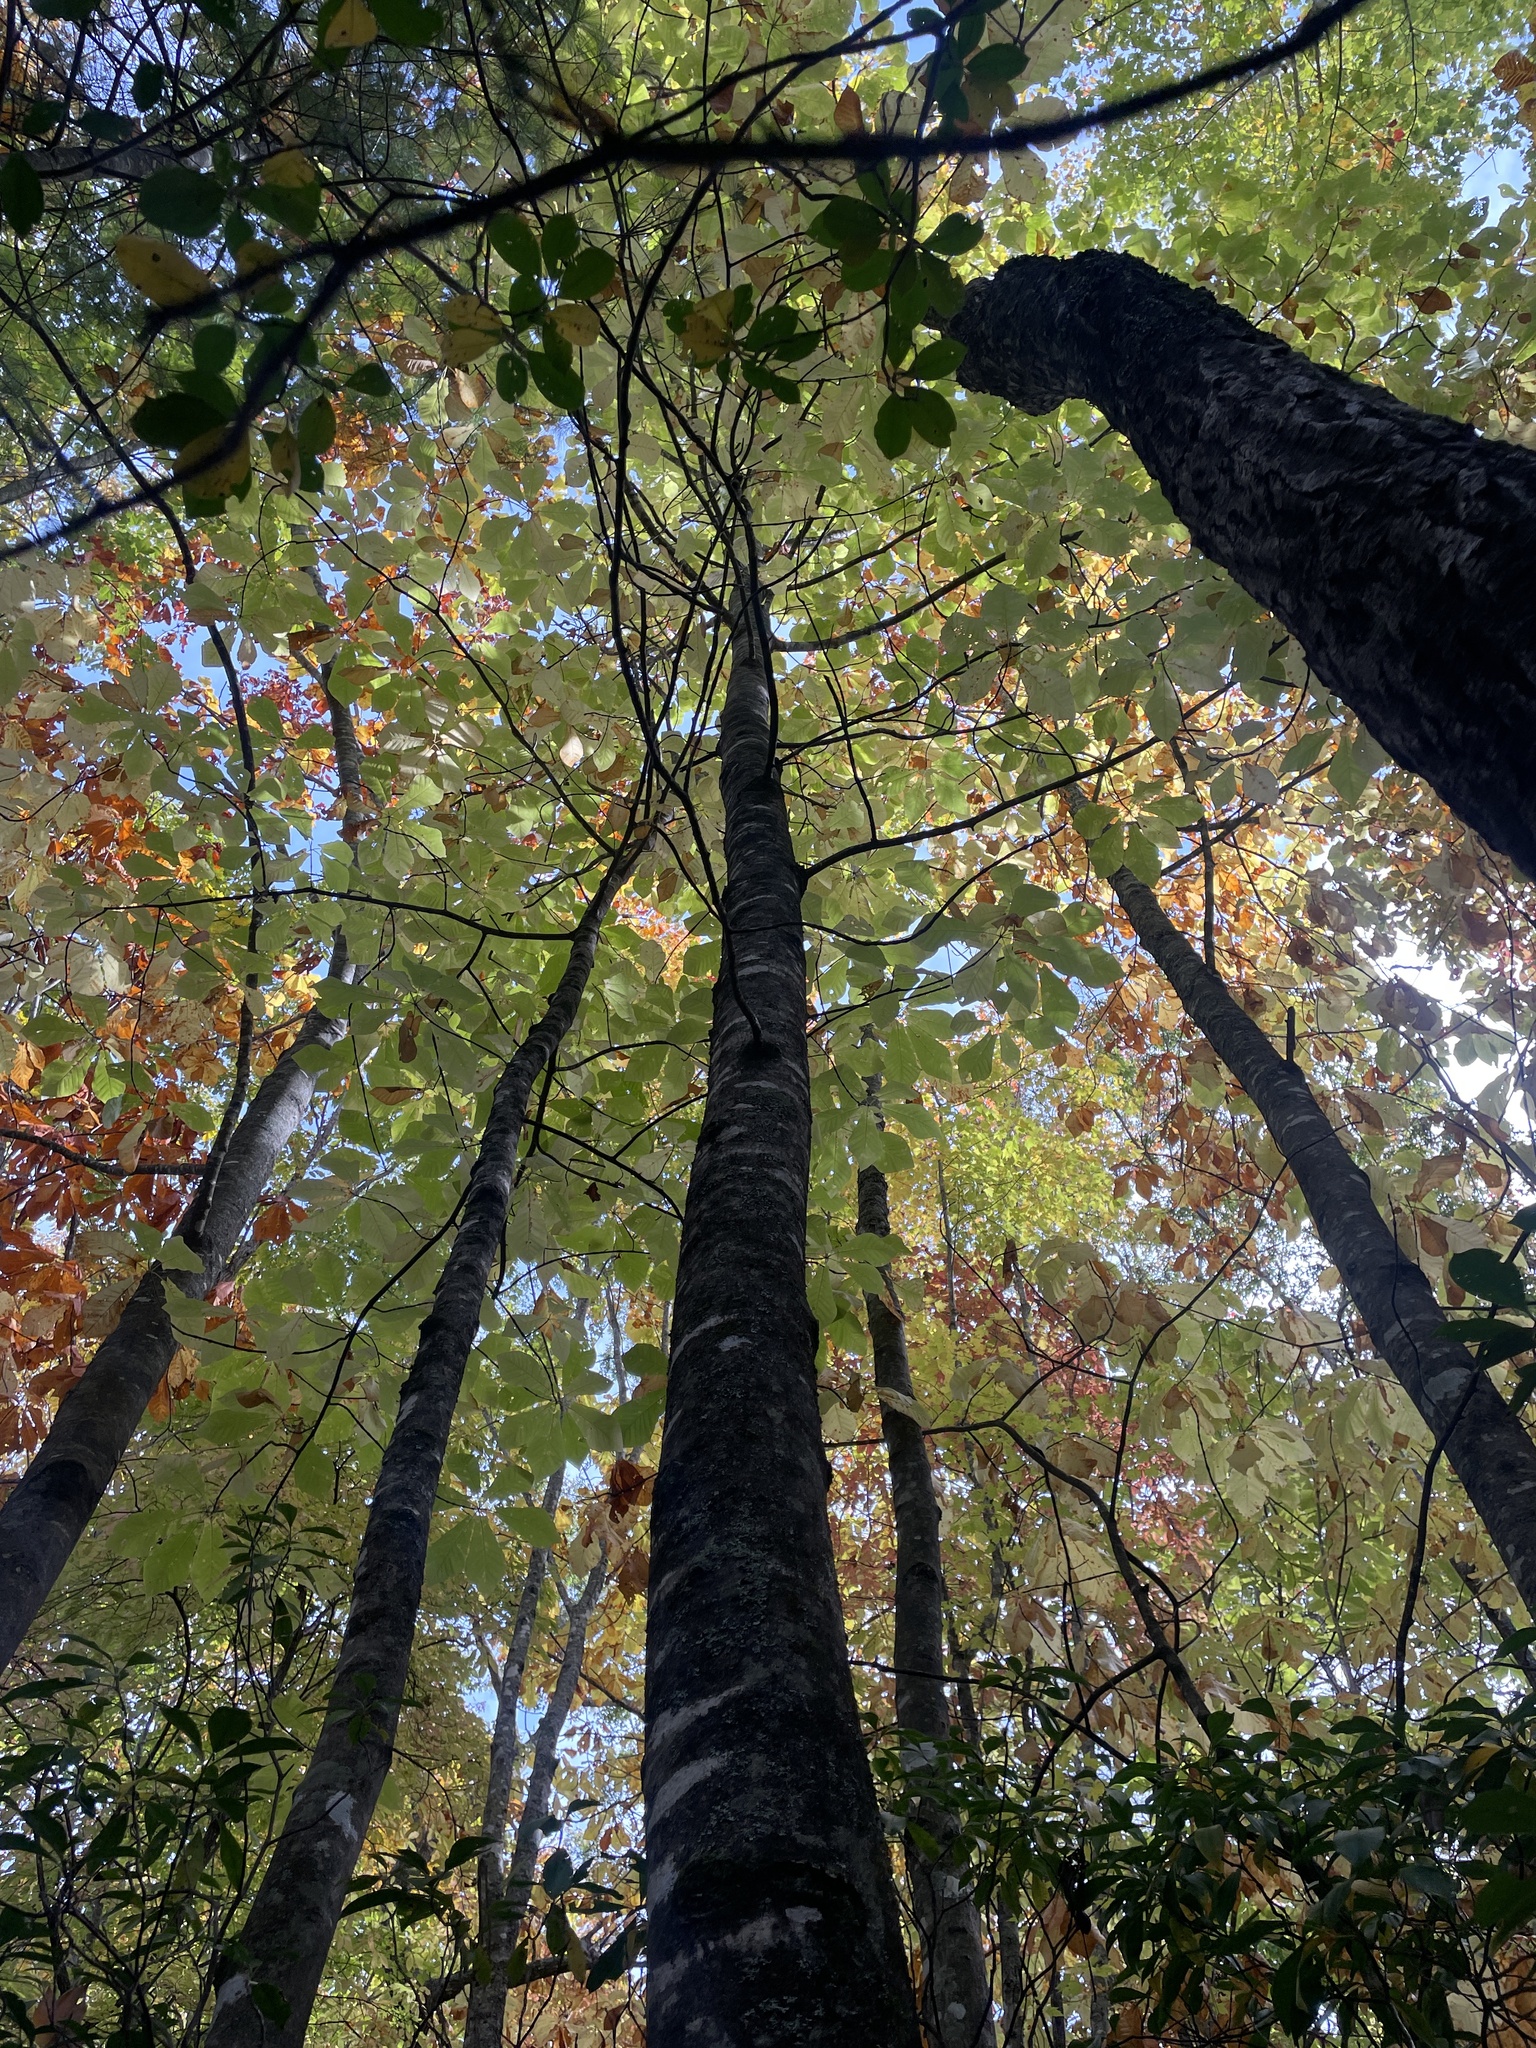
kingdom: Plantae
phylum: Tracheophyta
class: Magnoliopsida
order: Magnoliales
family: Magnoliaceae
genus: Magnolia
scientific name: Magnolia fraseri
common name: Fraser's magnolia
